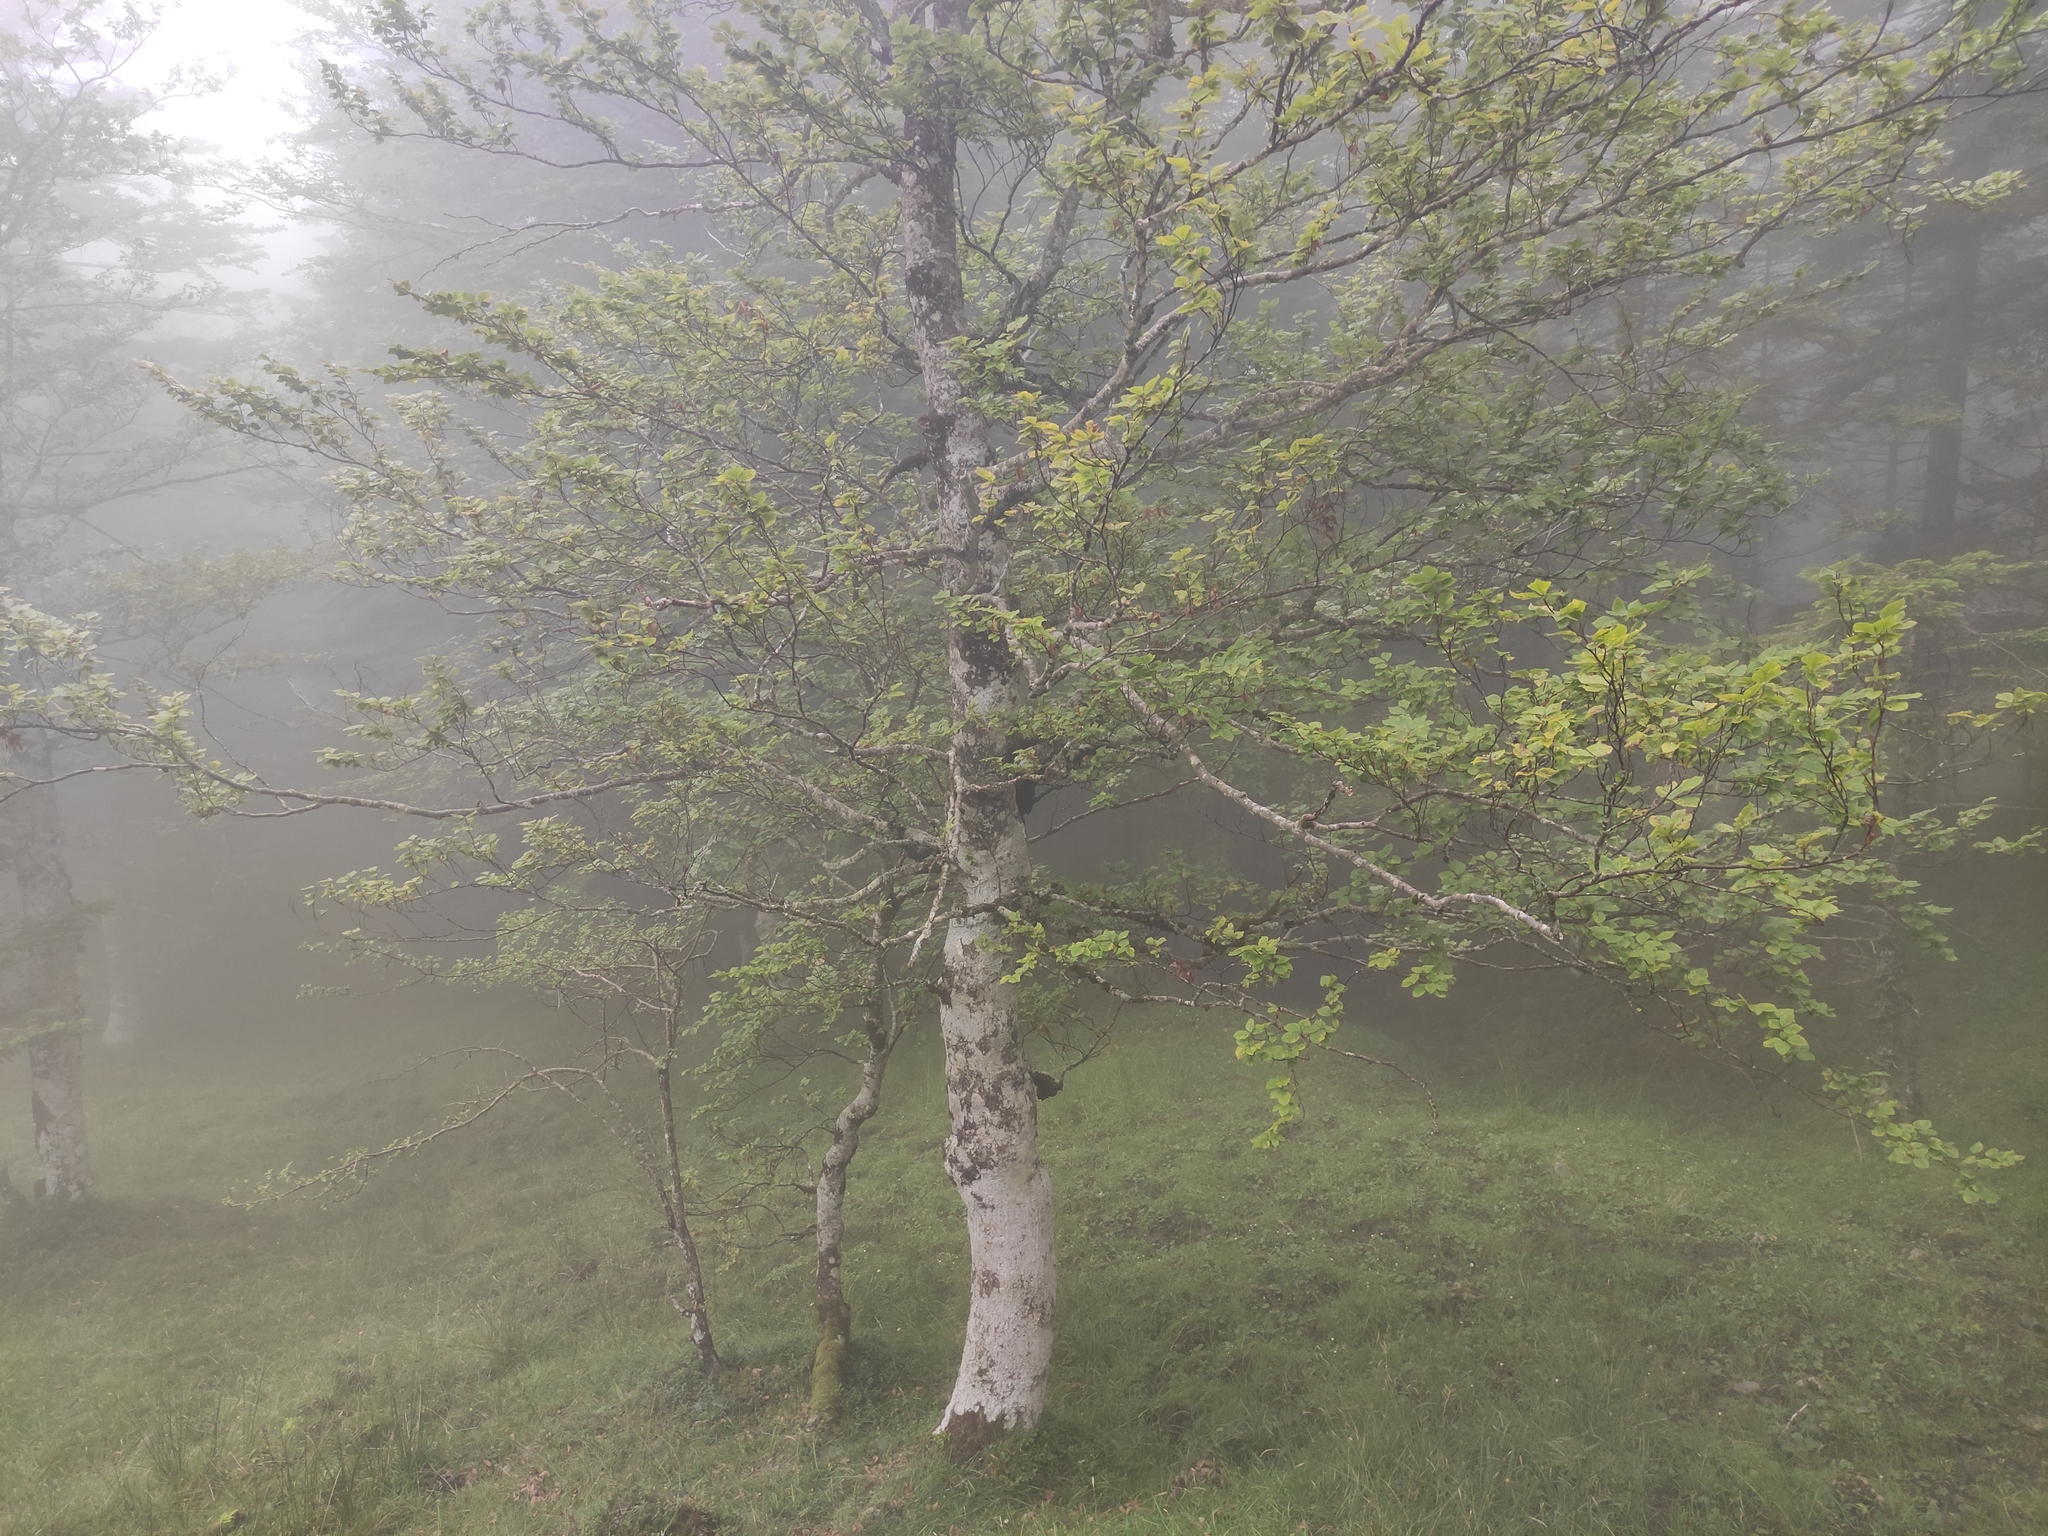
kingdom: Plantae
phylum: Tracheophyta
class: Magnoliopsida
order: Fagales
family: Fagaceae
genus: Fagus
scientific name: Fagus sylvatica
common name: Beech
